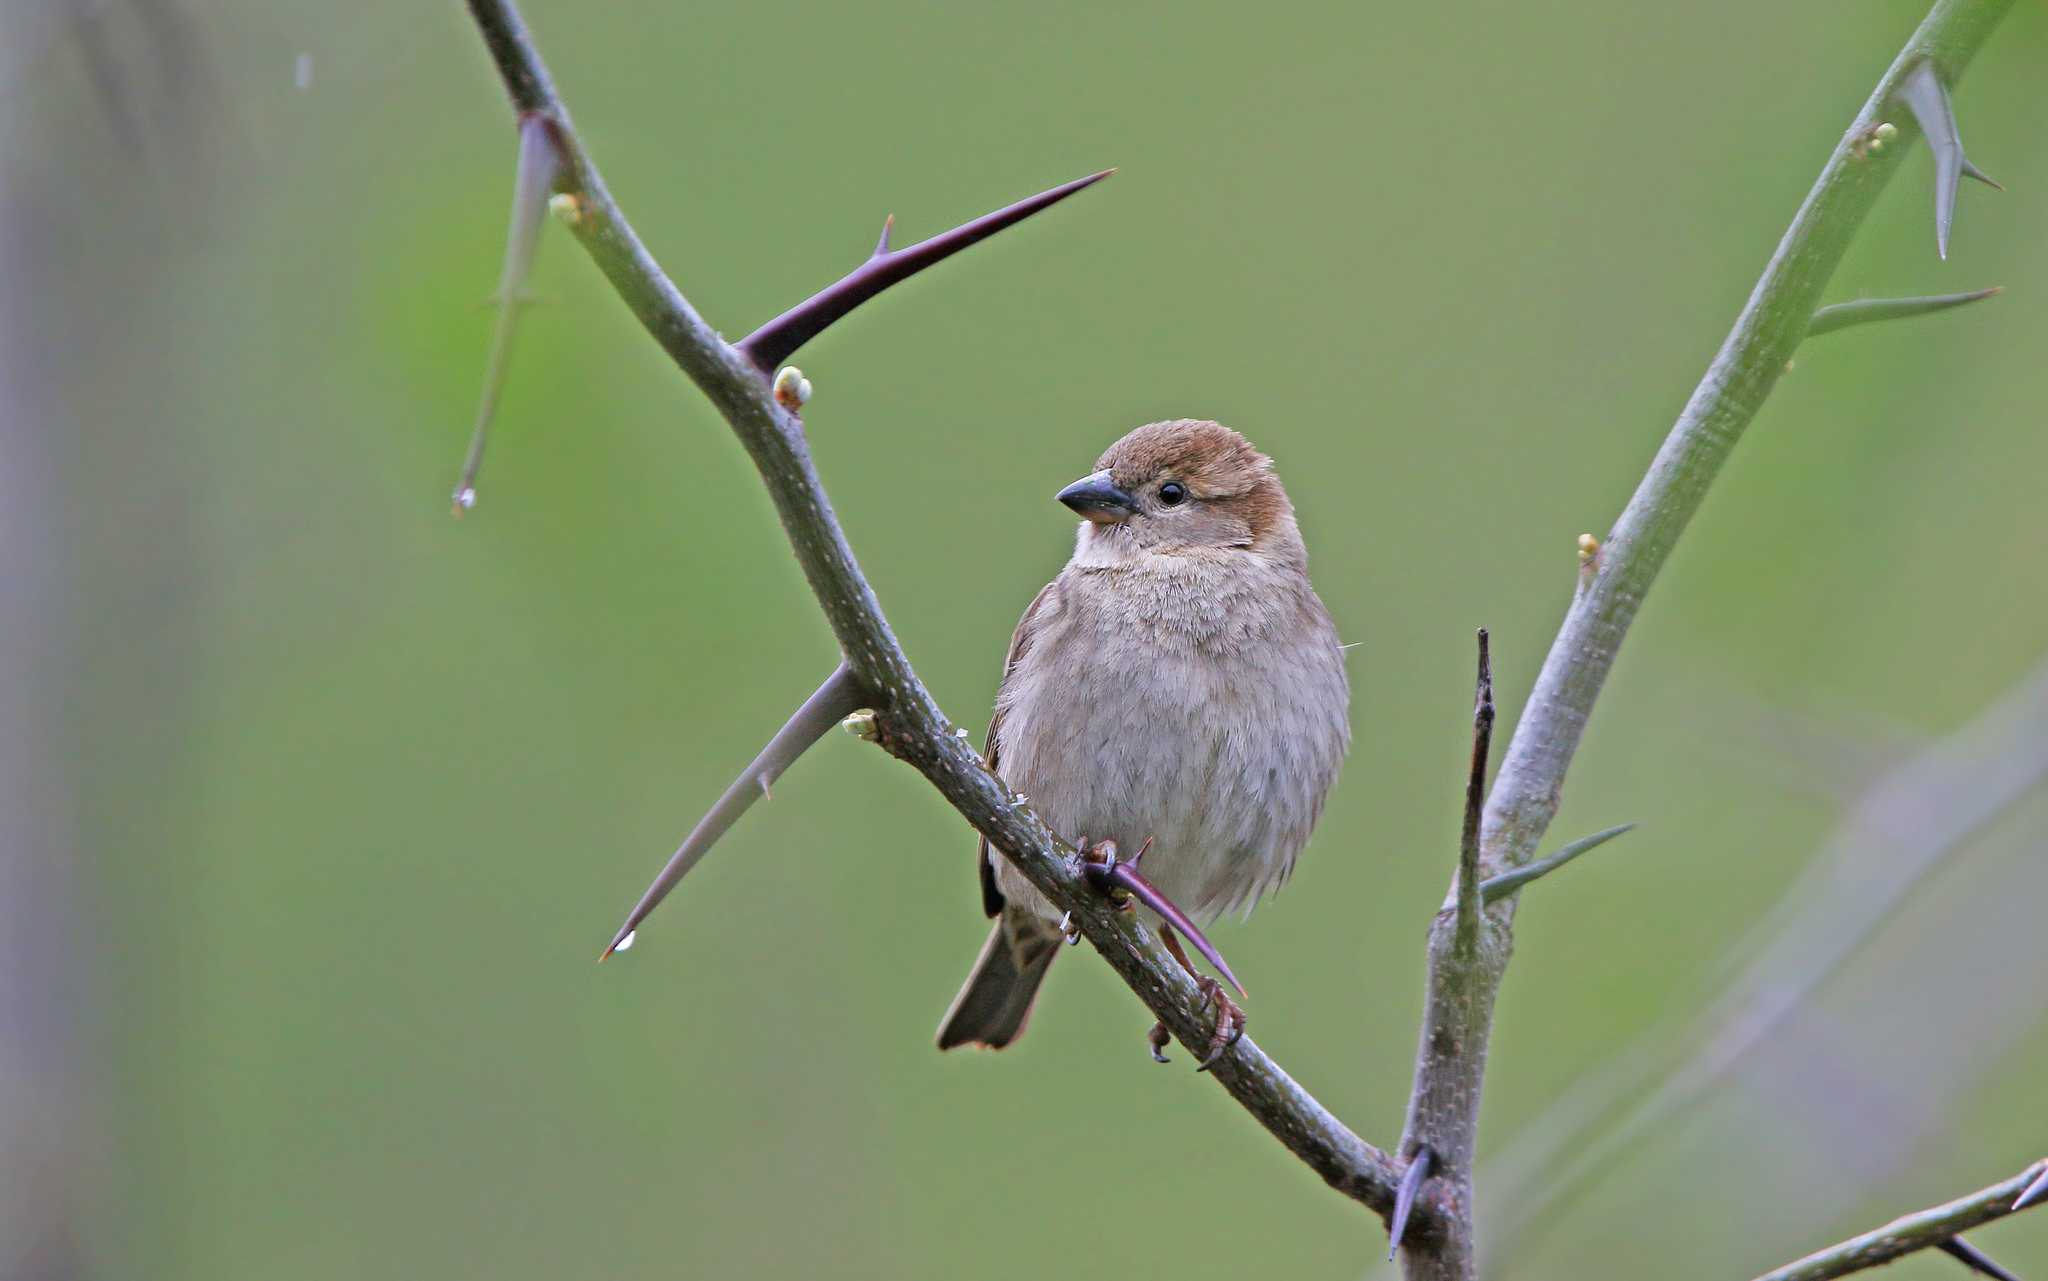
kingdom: Animalia
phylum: Chordata
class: Aves
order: Passeriformes
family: Passeridae
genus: Passer
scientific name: Passer domesticus
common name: House sparrow
